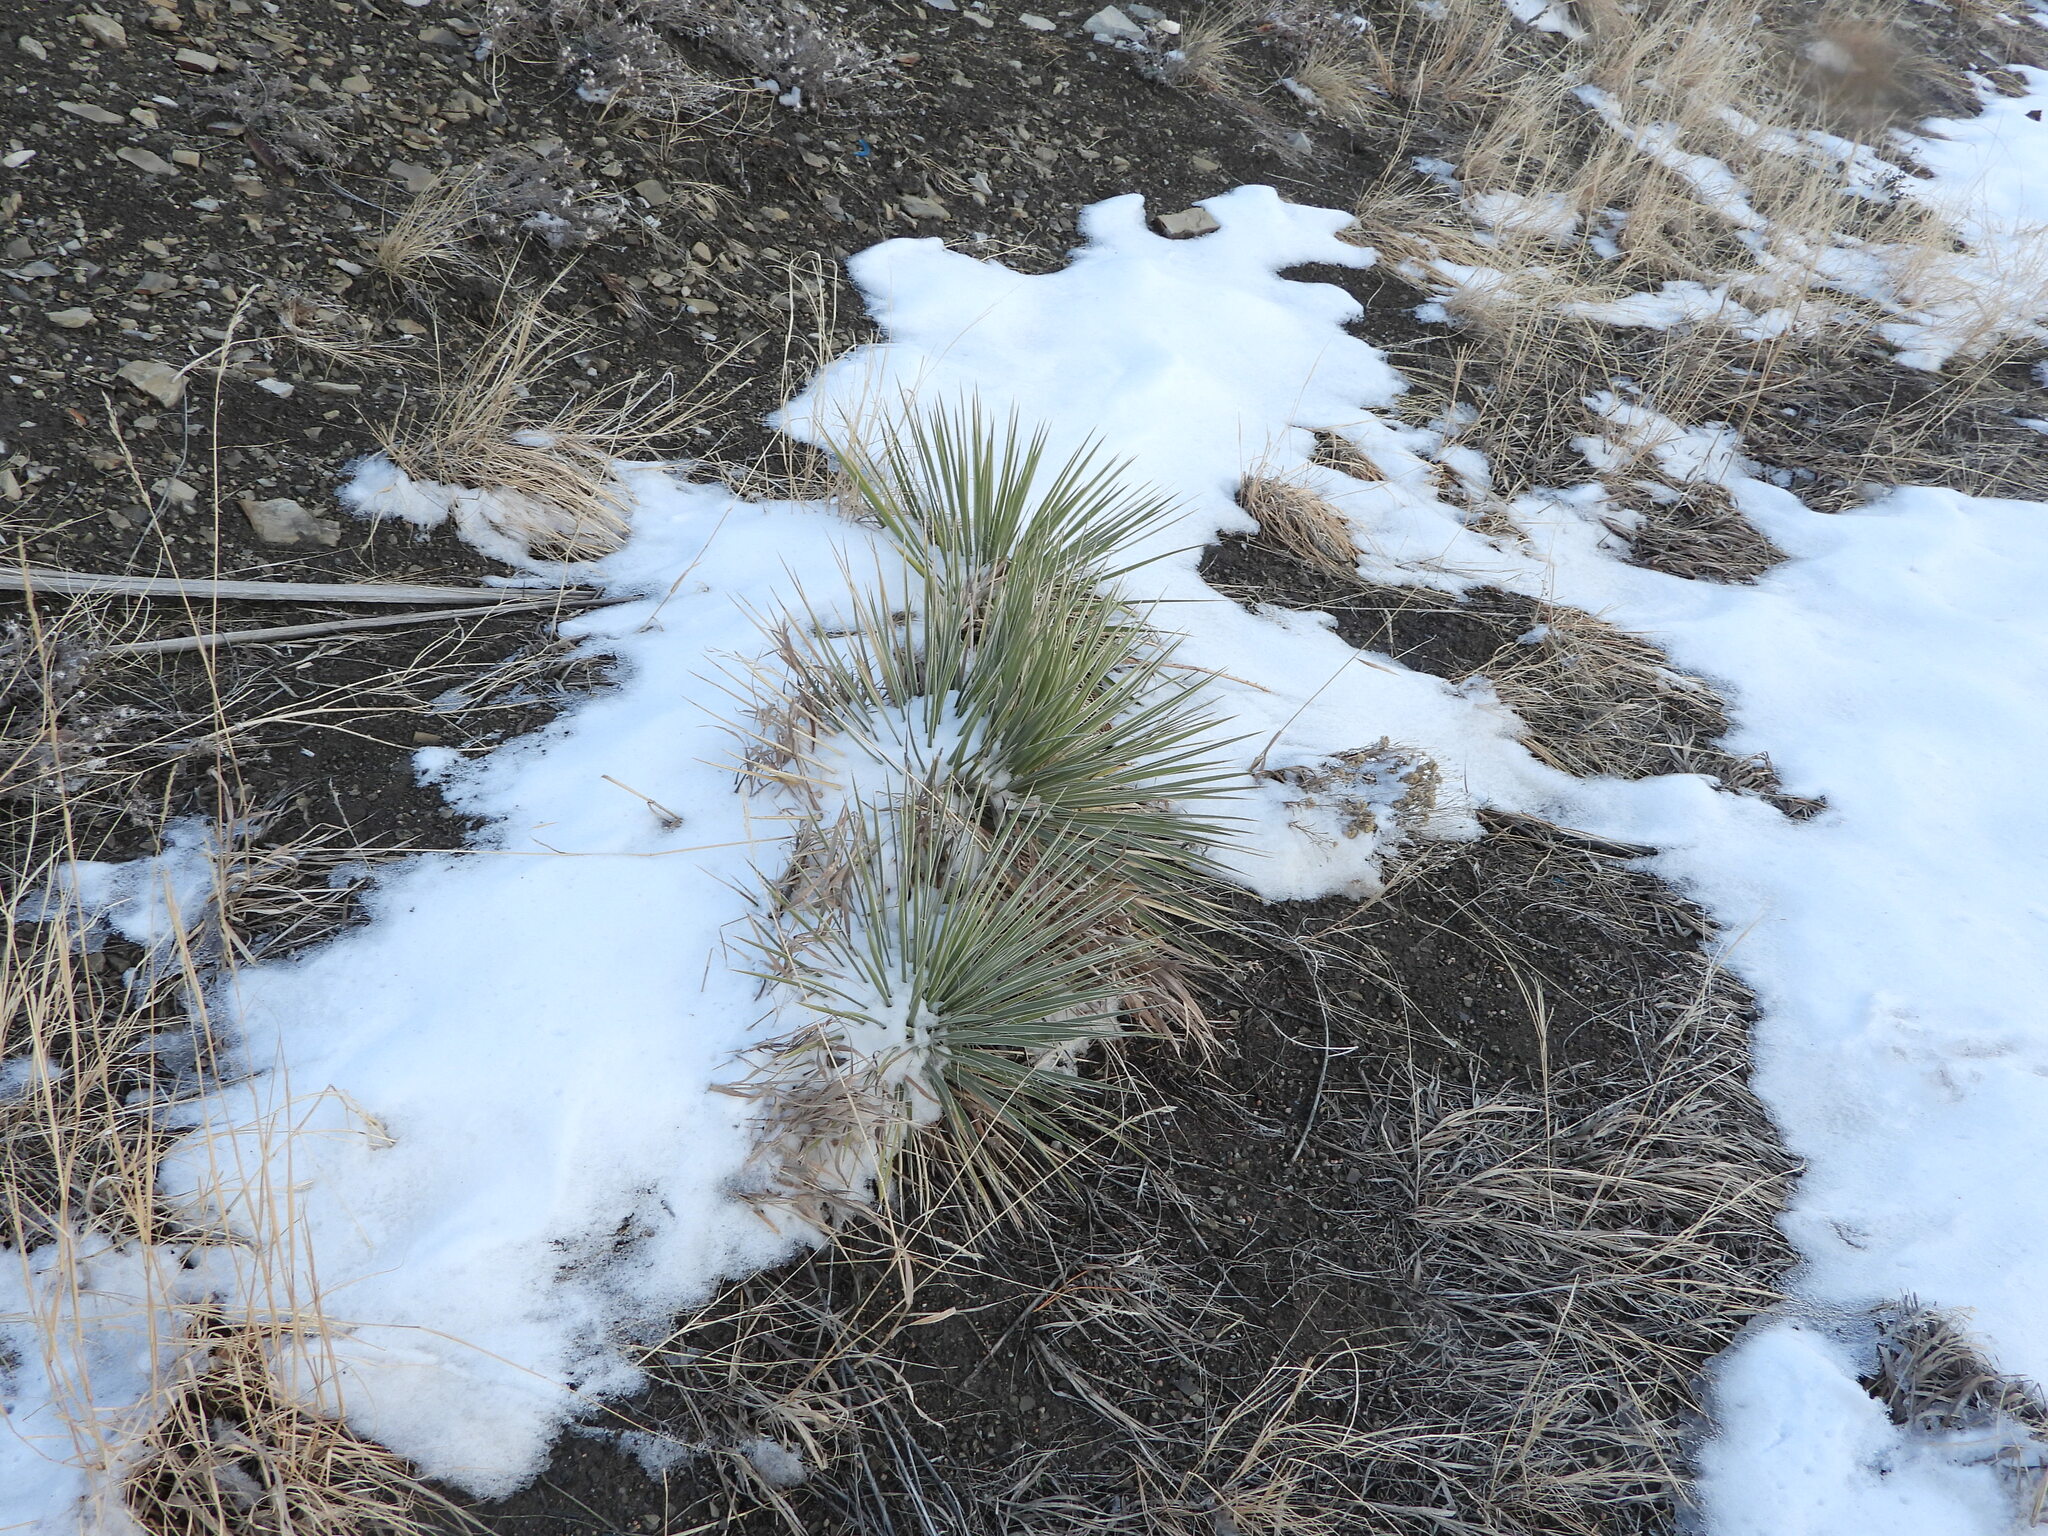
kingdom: Plantae
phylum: Tracheophyta
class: Liliopsida
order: Asparagales
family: Asparagaceae
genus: Yucca
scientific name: Yucca glauca
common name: Great plains yucca
